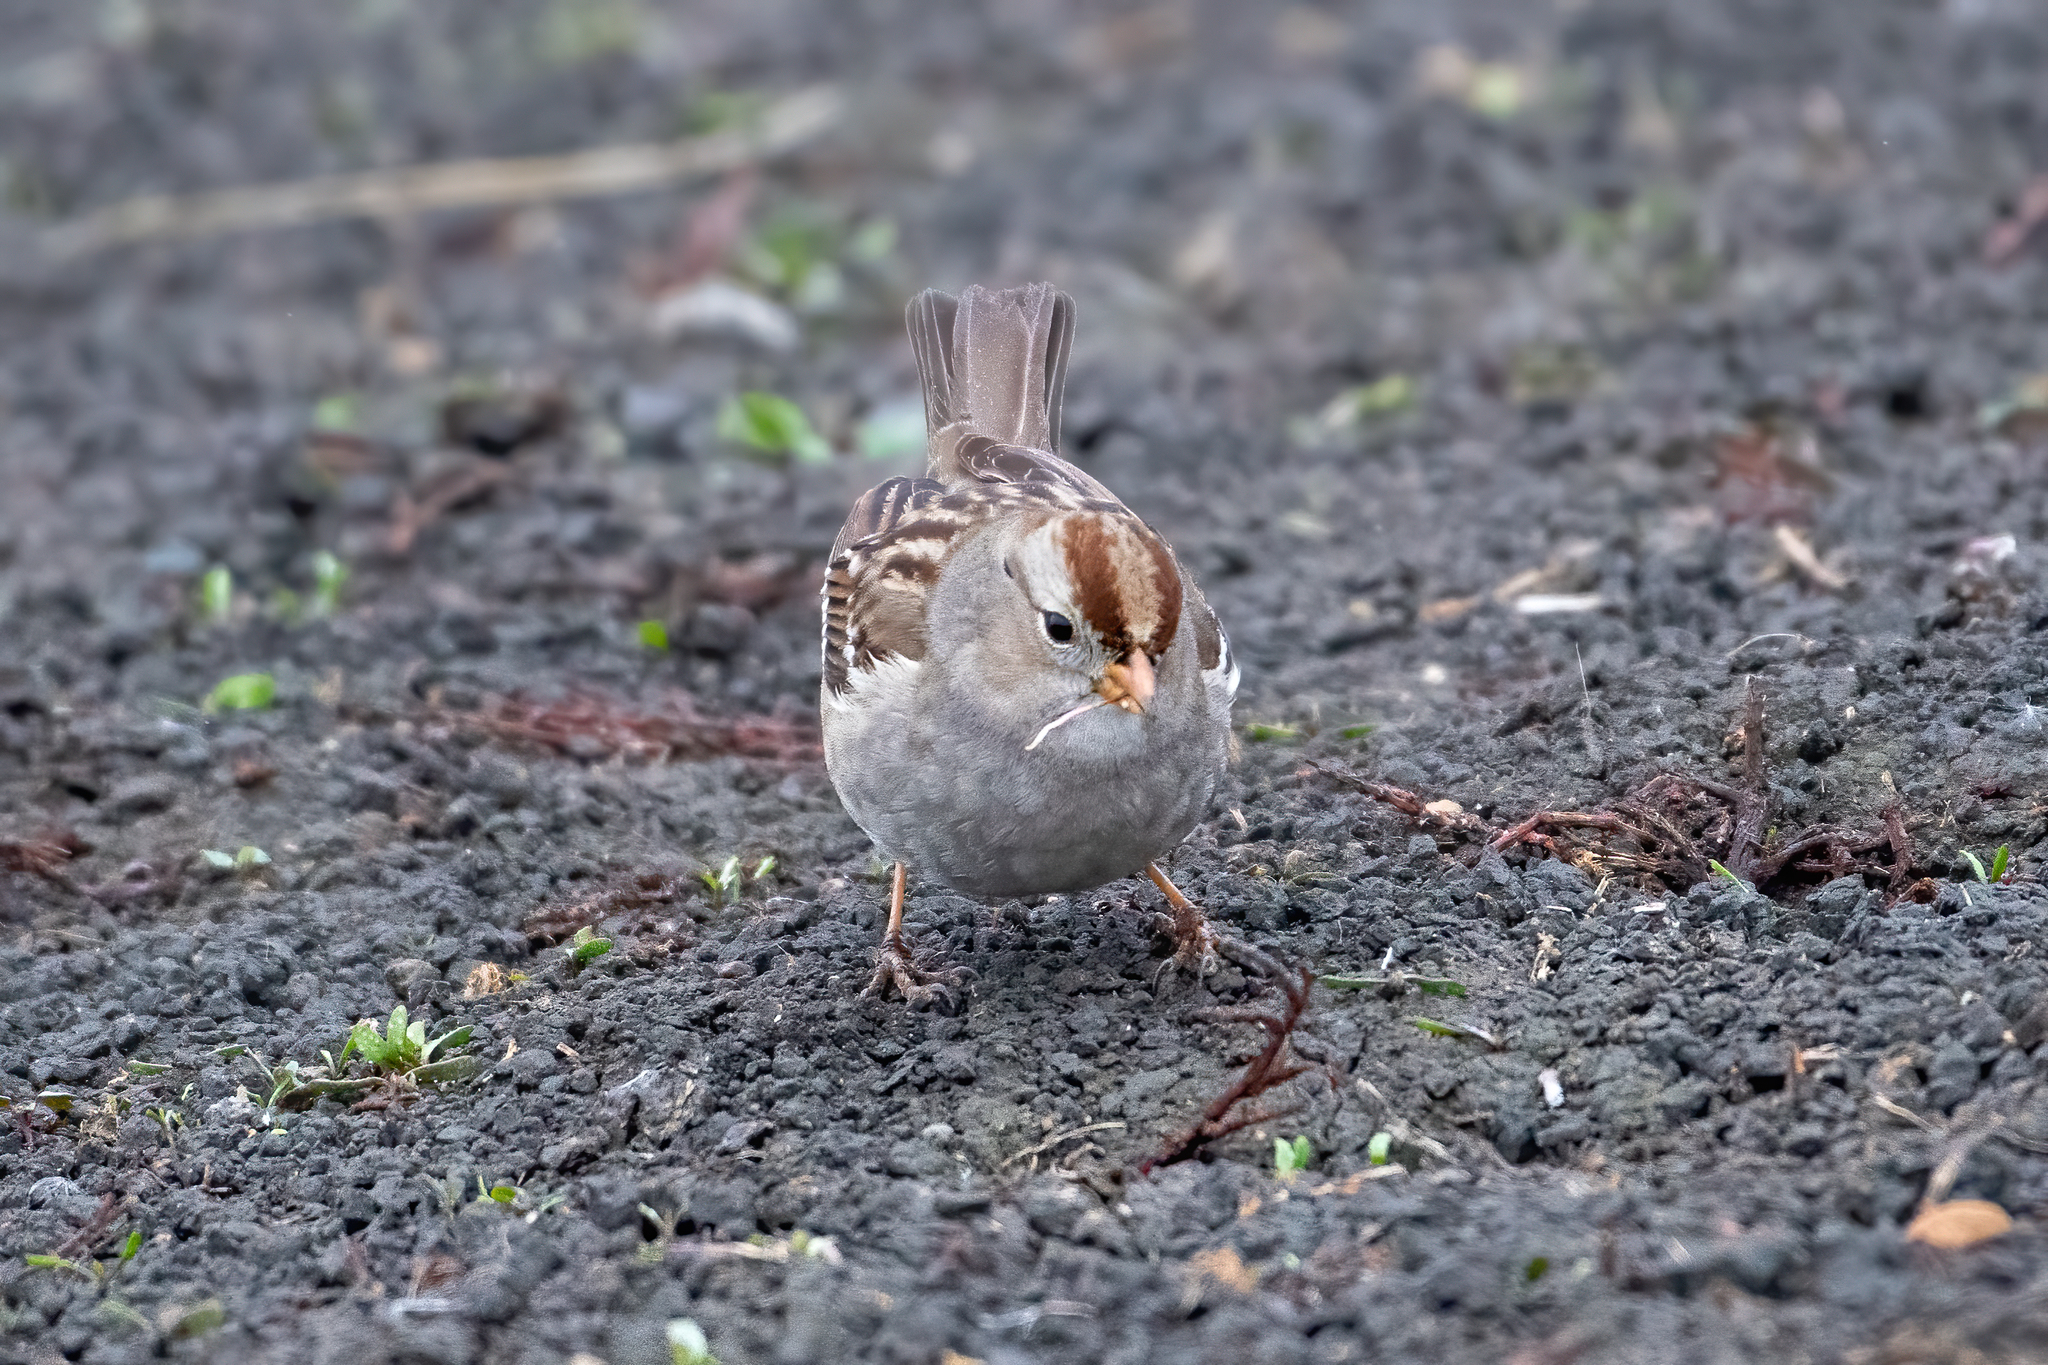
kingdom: Animalia
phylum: Chordata
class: Aves
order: Passeriformes
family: Passerellidae
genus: Zonotrichia
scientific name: Zonotrichia leucophrys
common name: White-crowned sparrow
